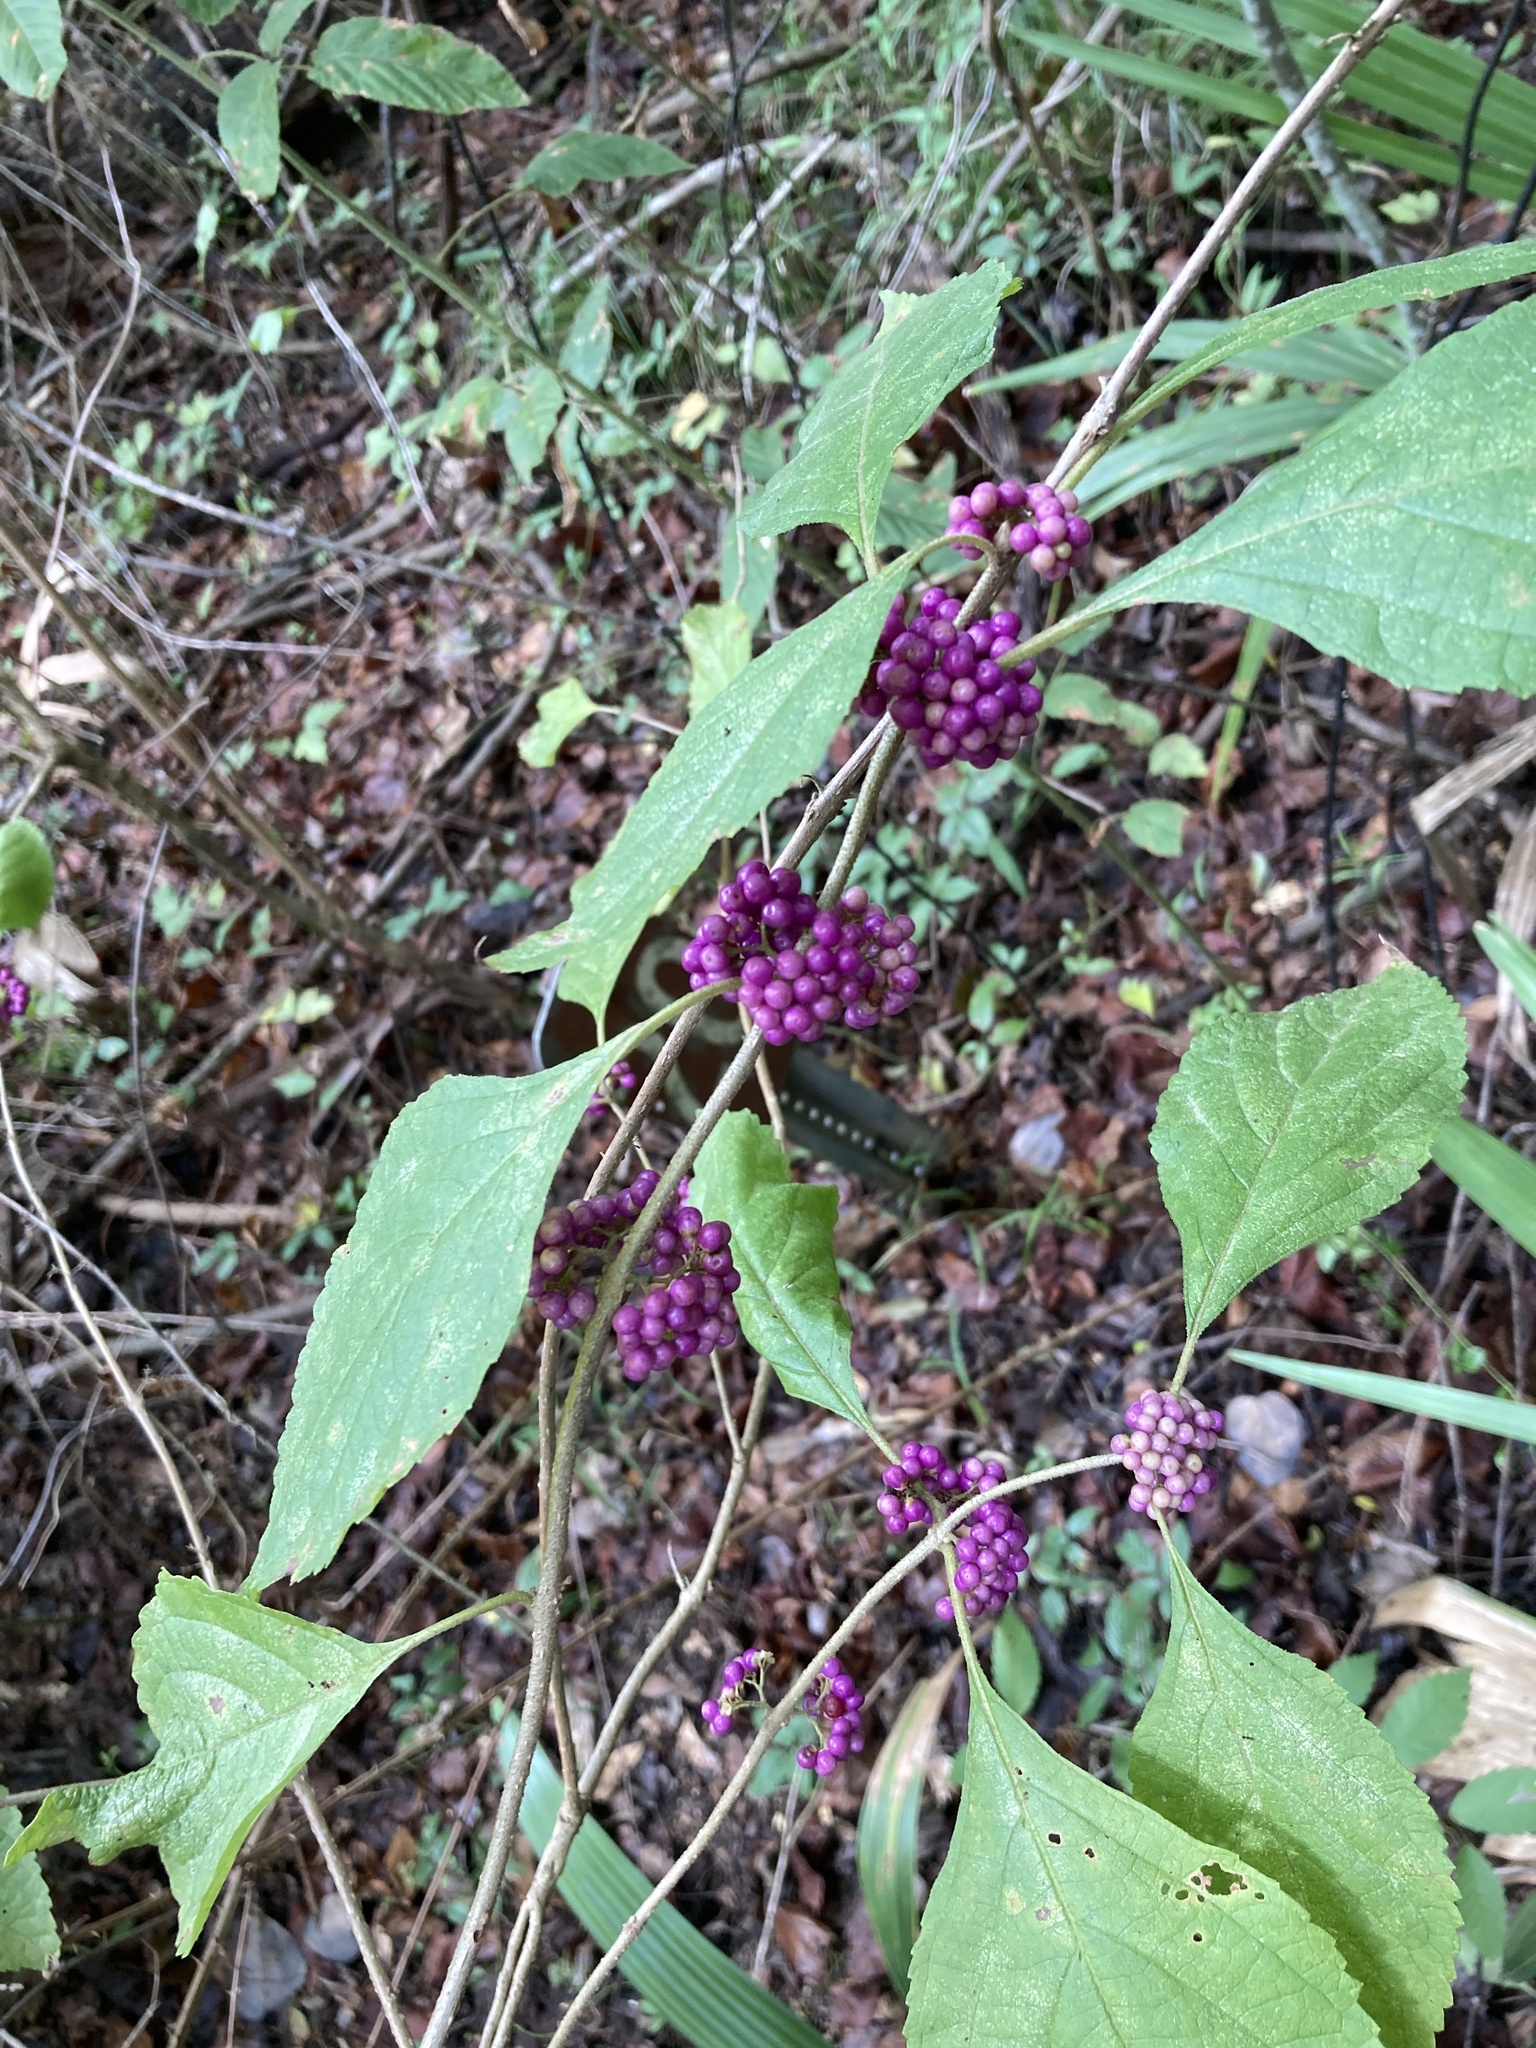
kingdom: Plantae
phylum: Tracheophyta
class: Magnoliopsida
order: Lamiales
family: Lamiaceae
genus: Callicarpa
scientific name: Callicarpa americana
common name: American beautyberry
